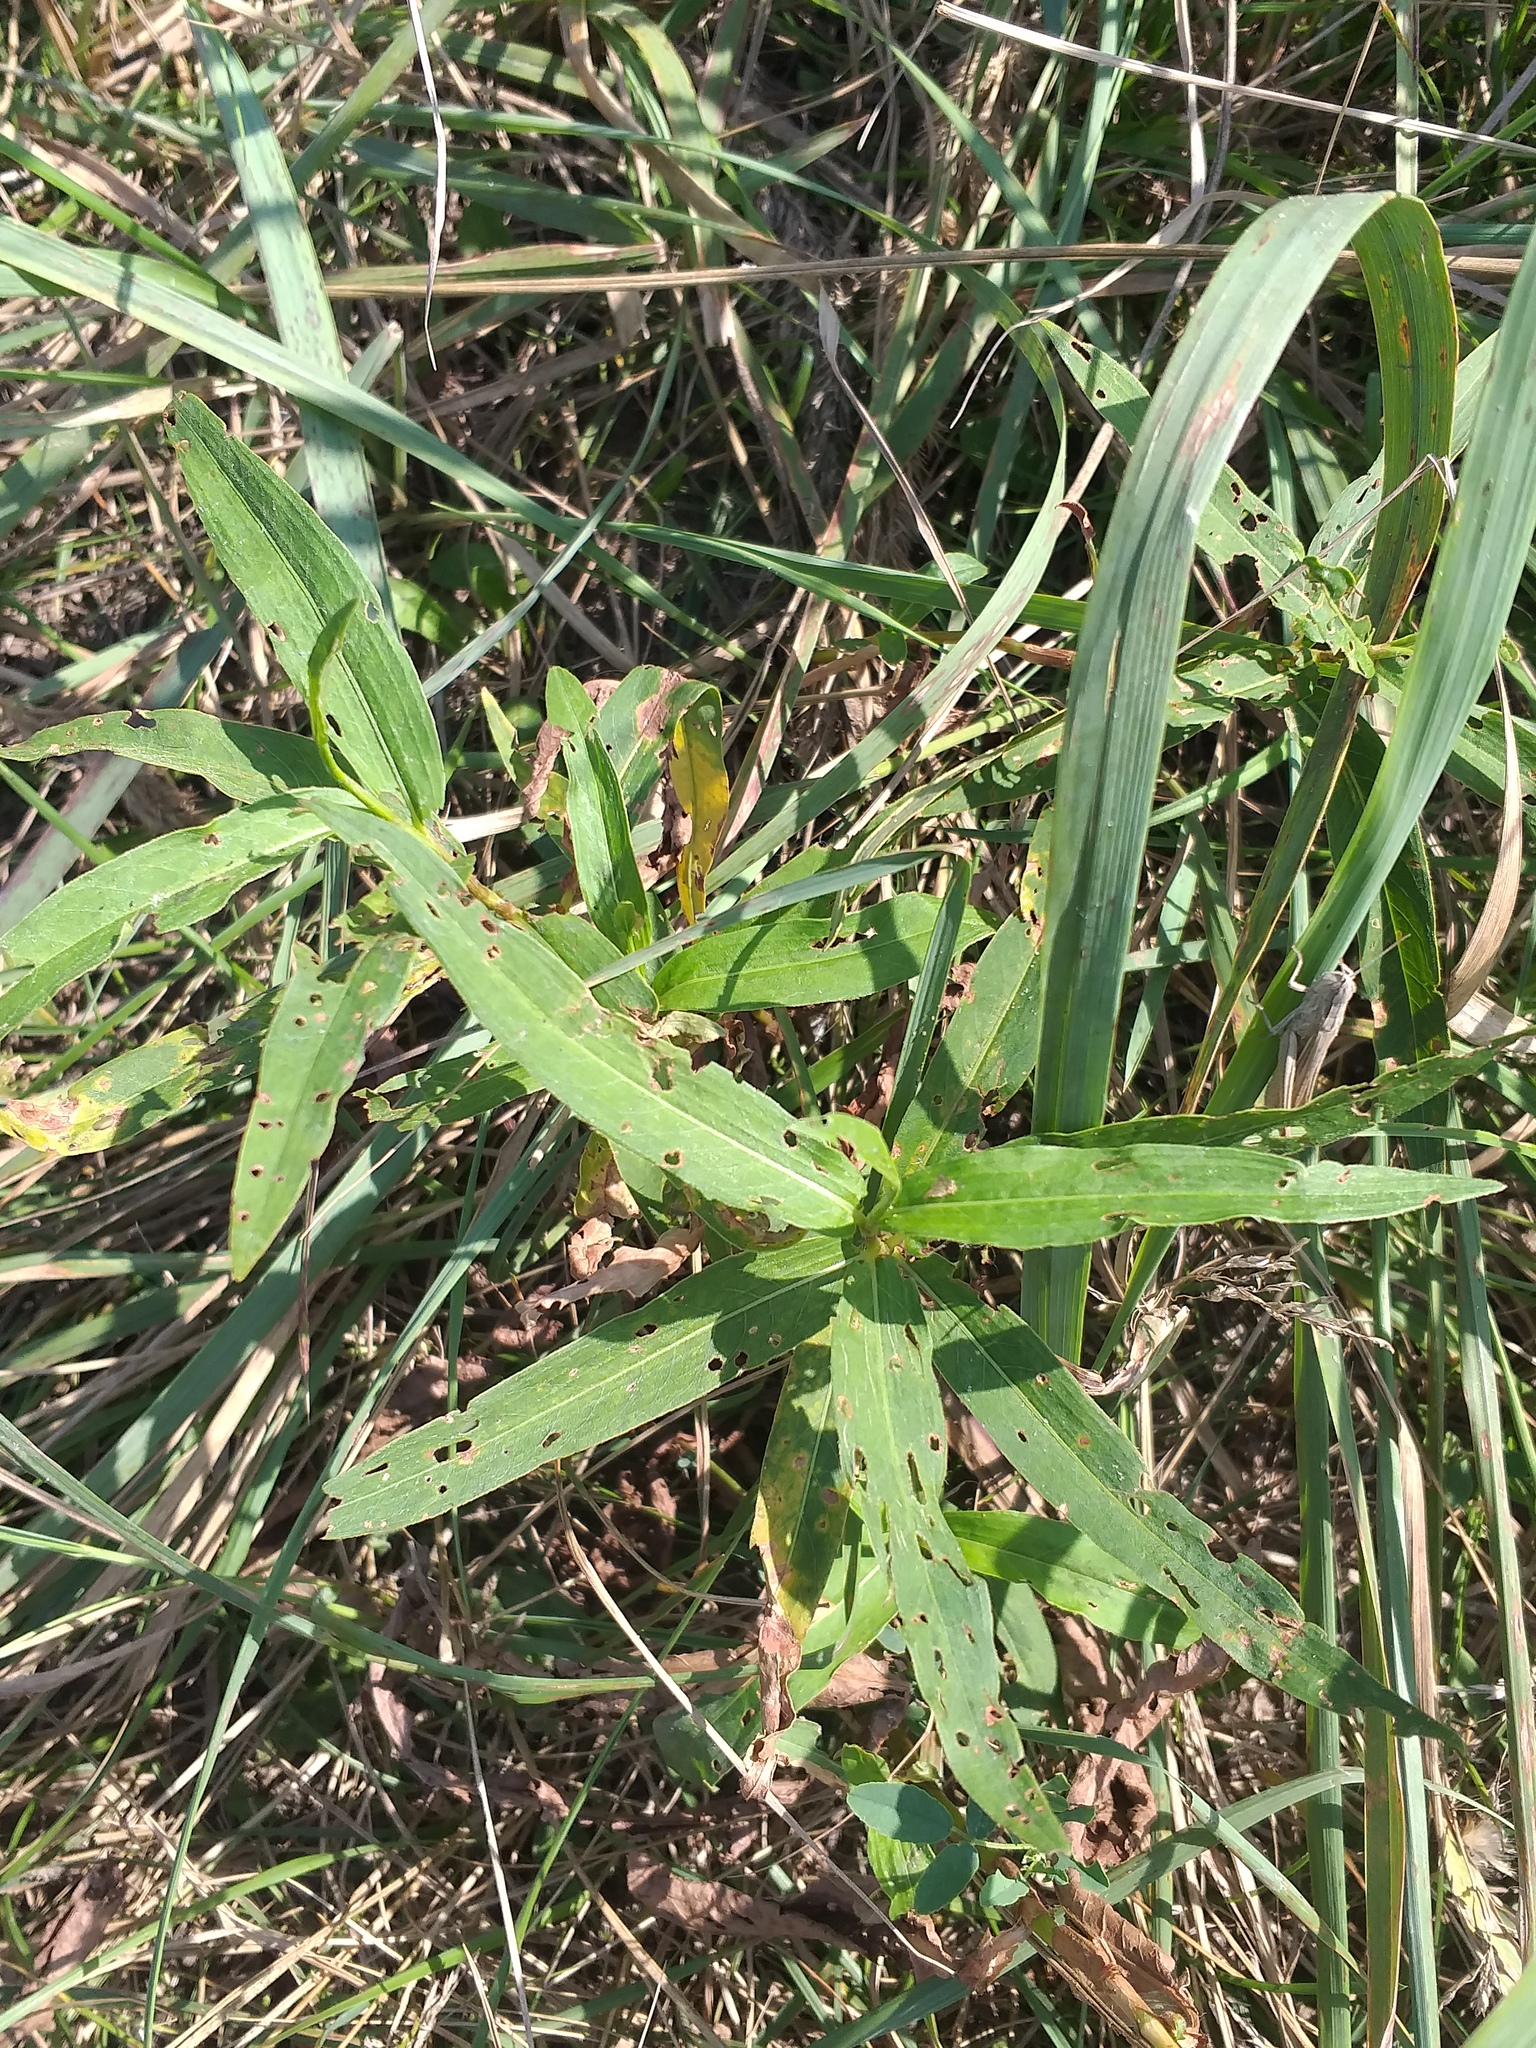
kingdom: Plantae
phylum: Tracheophyta
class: Magnoliopsida
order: Caryophyllales
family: Polygonaceae
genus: Persicaria
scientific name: Persicaria amphibia
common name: Amphibious bistort
